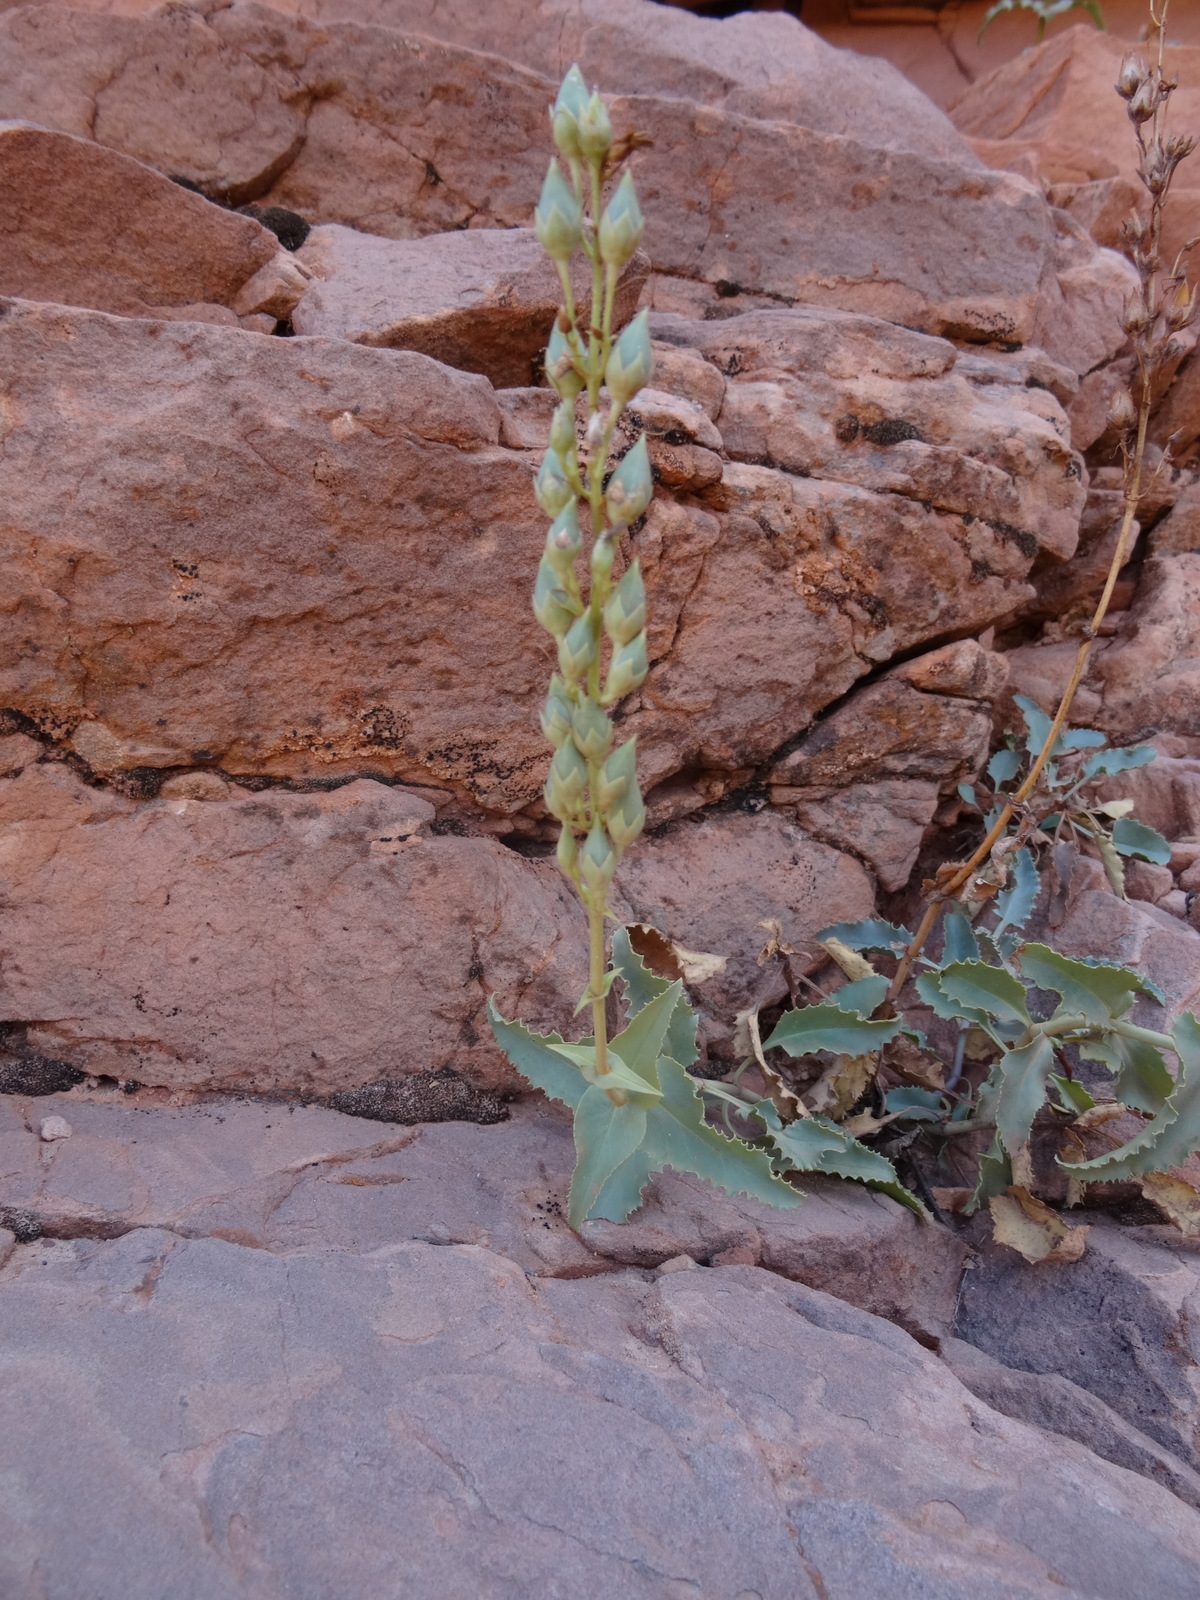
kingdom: Plantae
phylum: Tracheophyta
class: Magnoliopsida
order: Lamiales
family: Plantaginaceae
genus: Penstemon
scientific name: Penstemon pseudospectabilis
